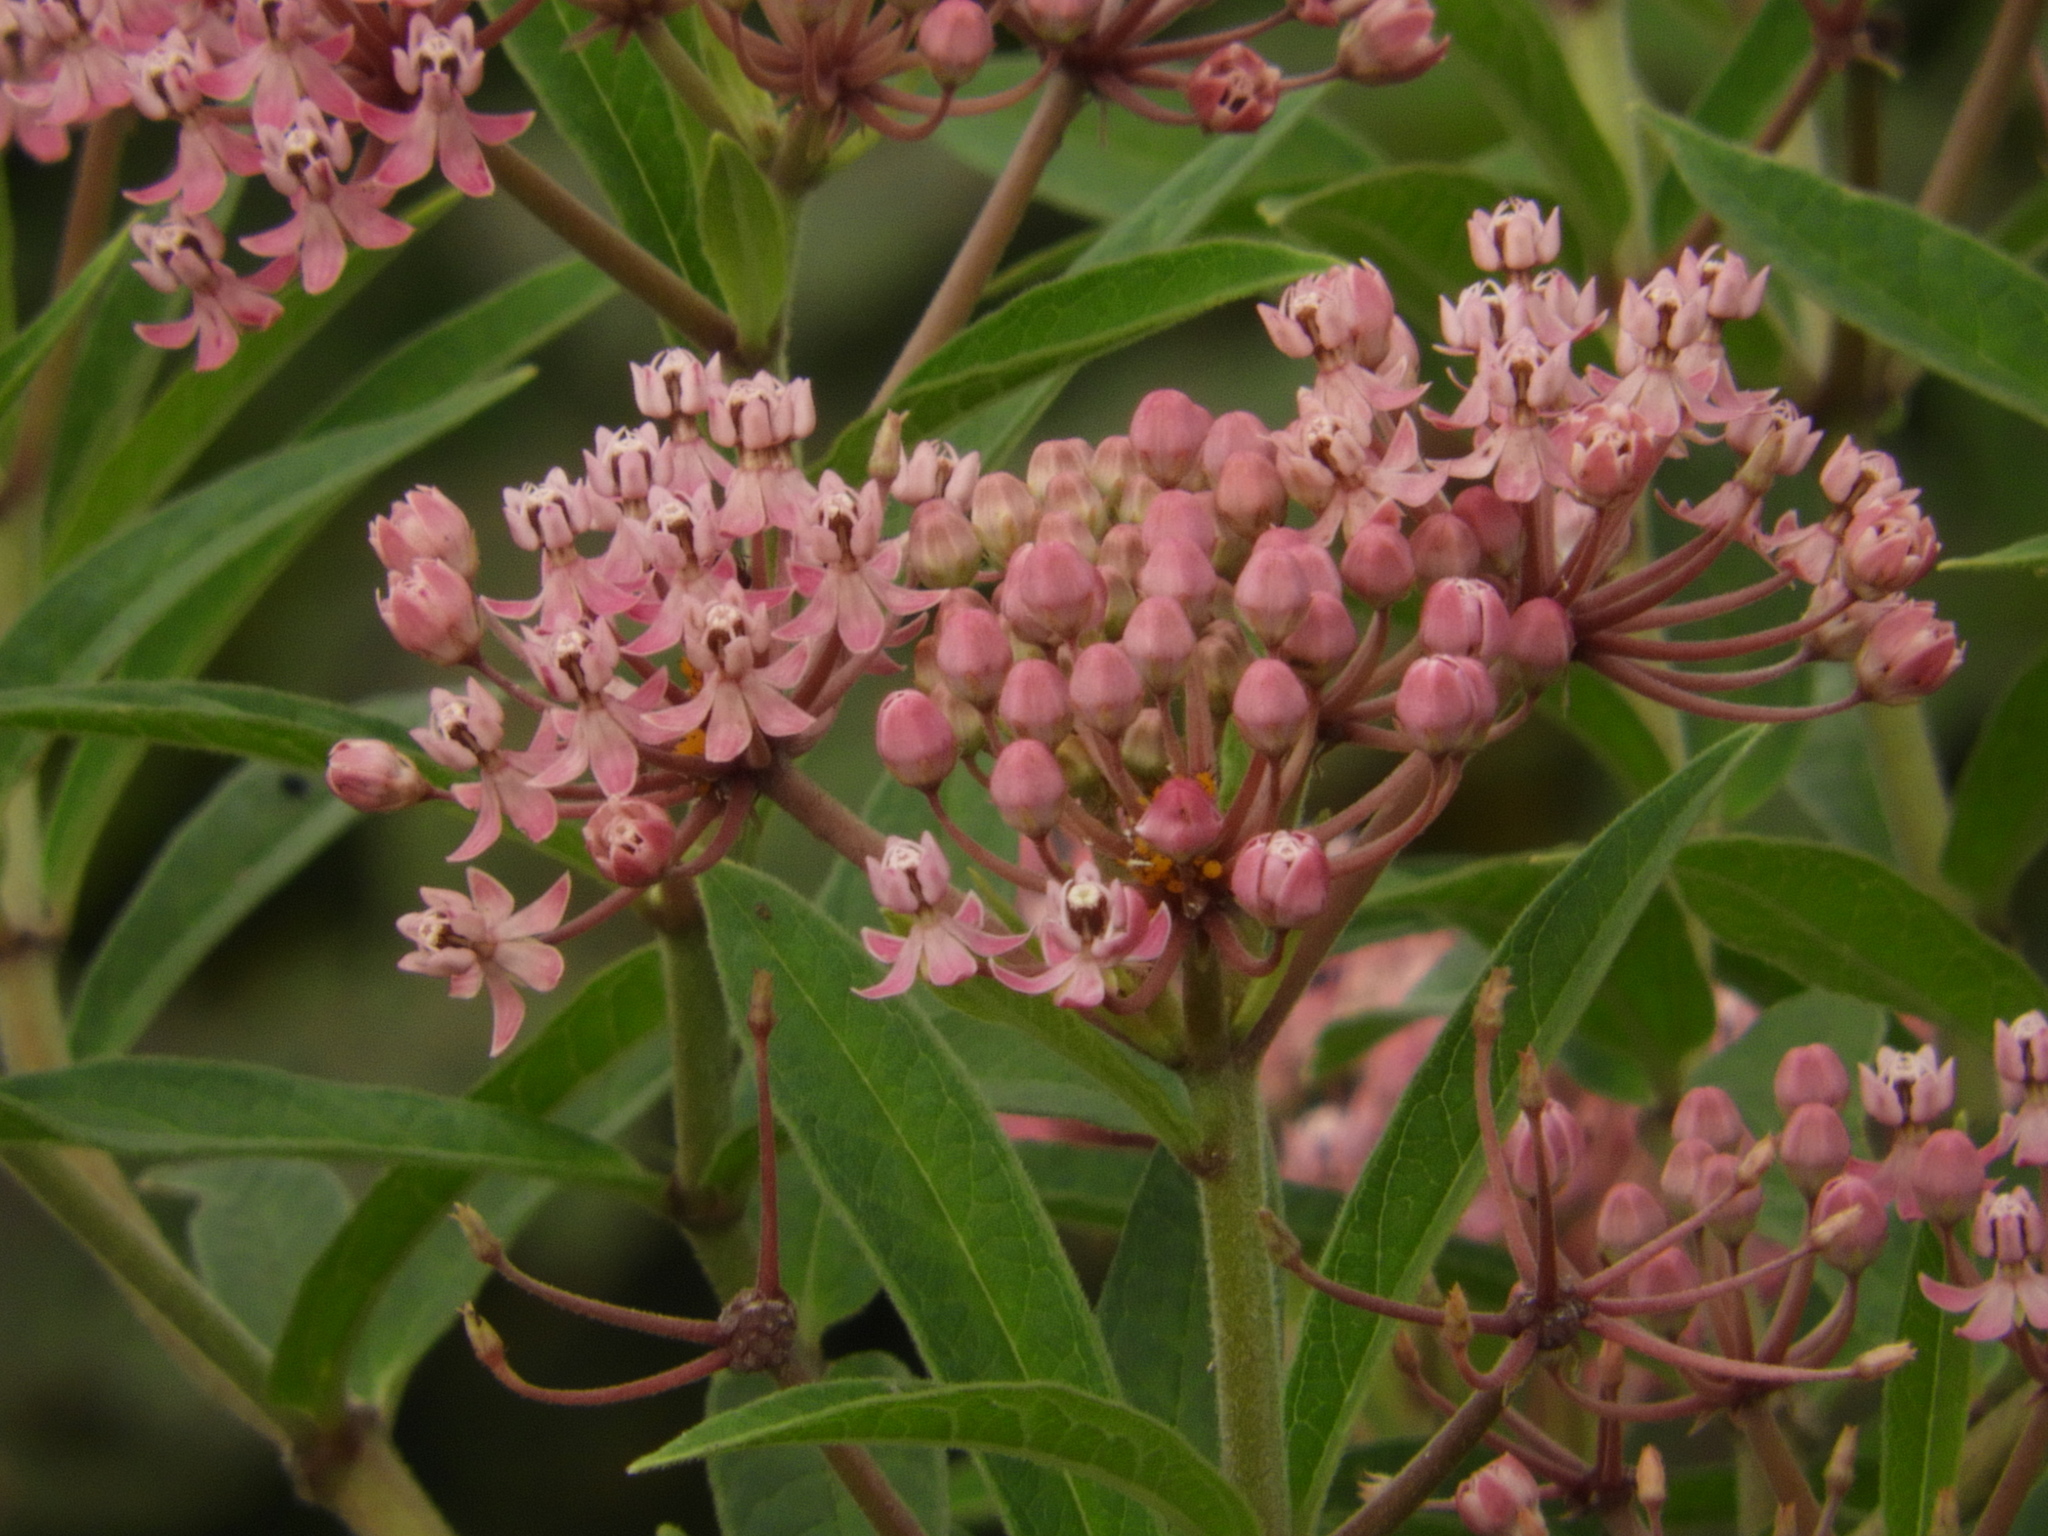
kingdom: Plantae
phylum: Tracheophyta
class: Magnoliopsida
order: Gentianales
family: Apocynaceae
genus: Asclepias
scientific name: Asclepias incarnata
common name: Swamp milkweed
